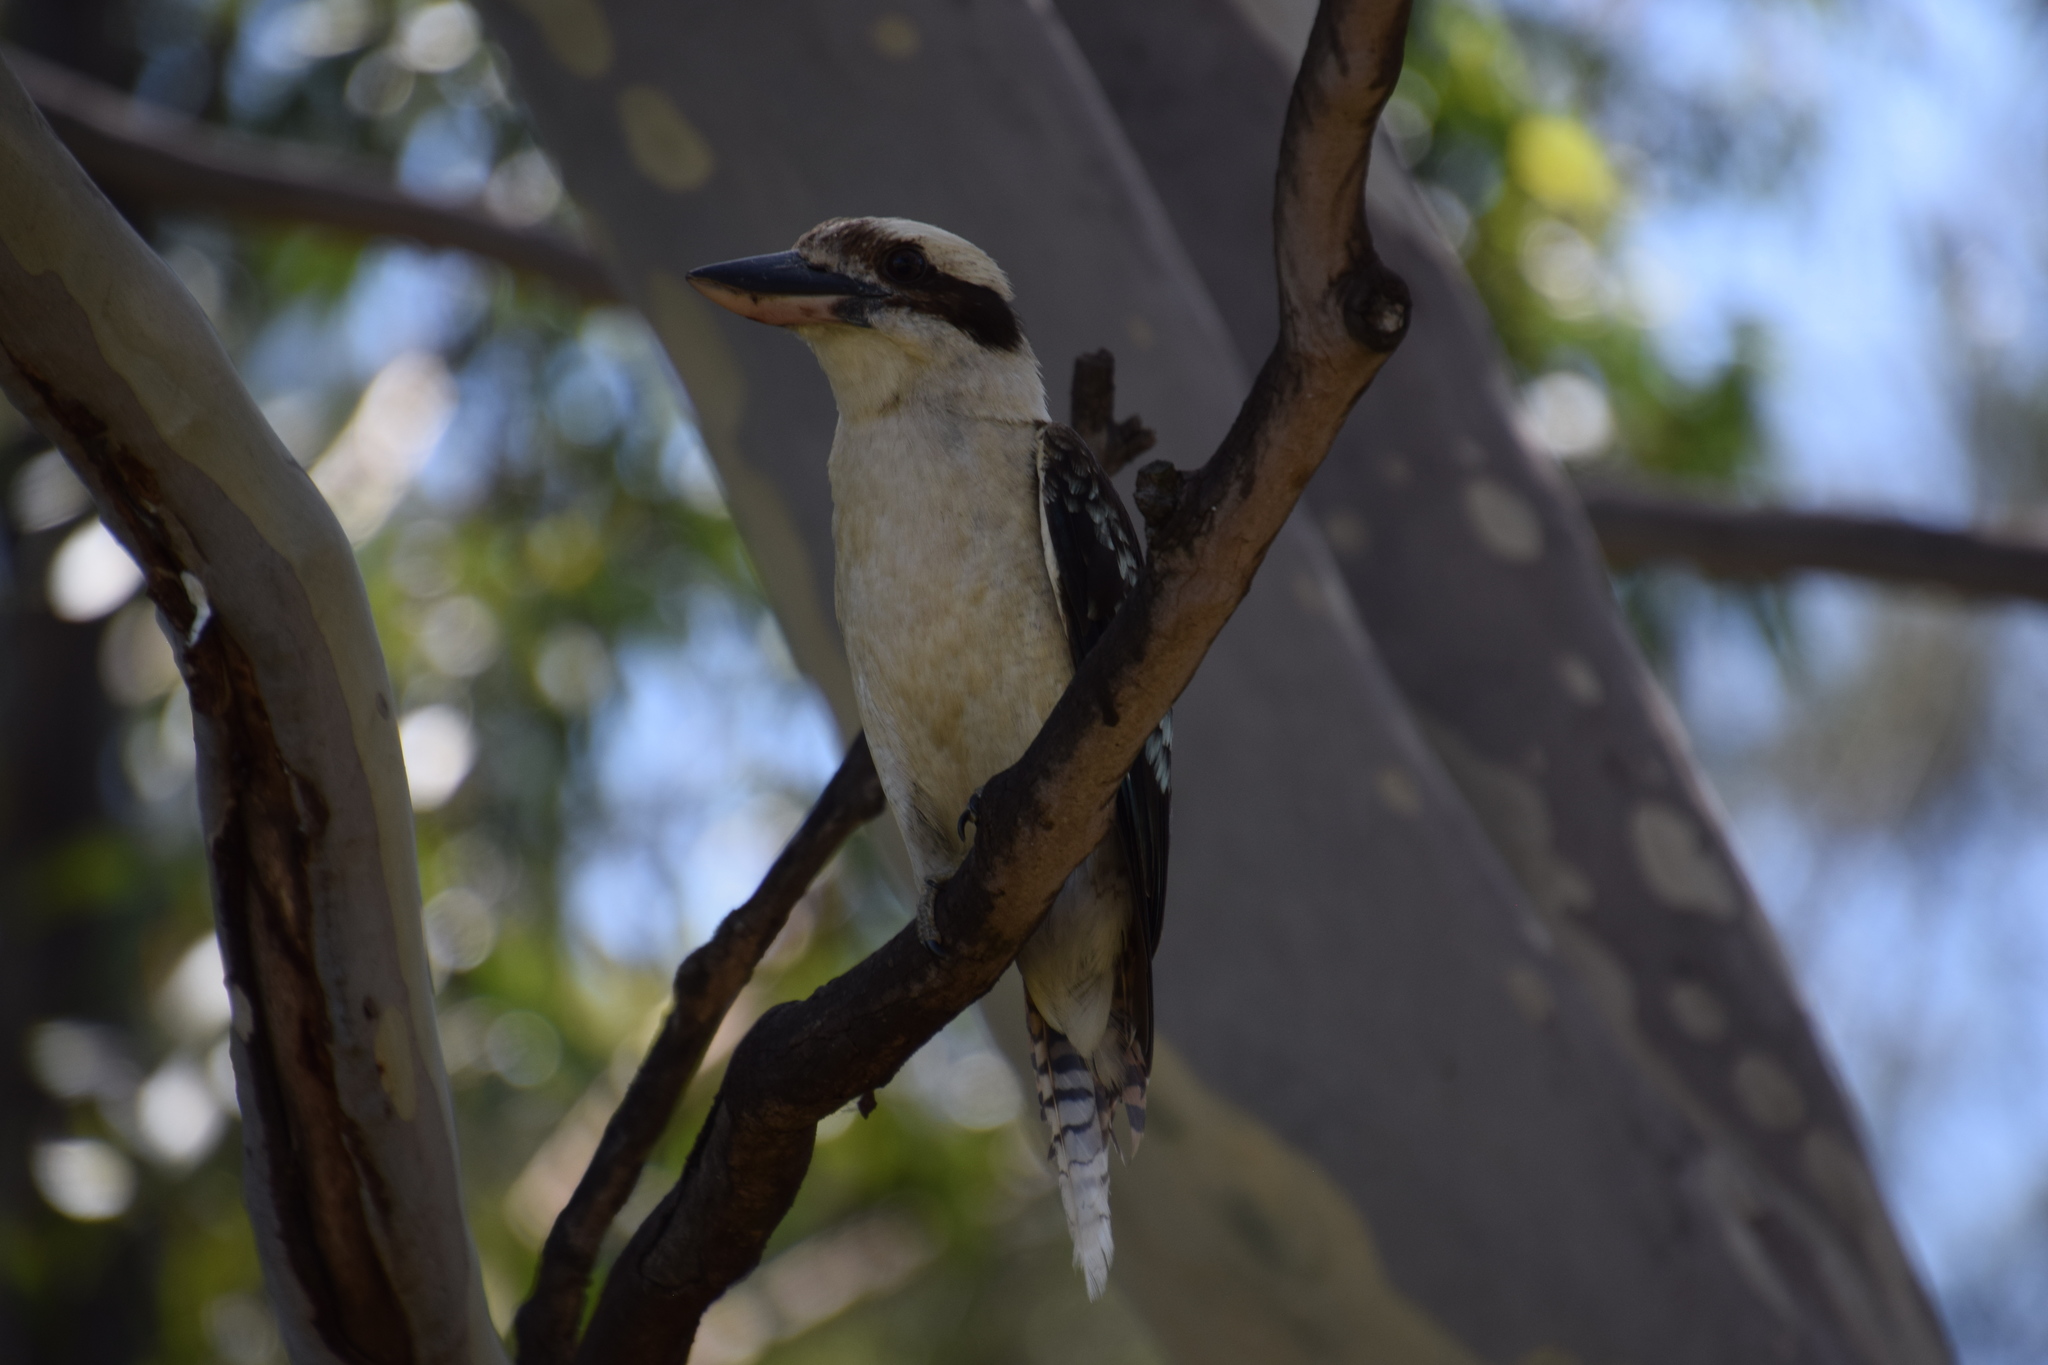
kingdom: Animalia
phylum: Chordata
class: Aves
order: Coraciiformes
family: Alcedinidae
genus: Dacelo
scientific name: Dacelo novaeguineae
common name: Laughing kookaburra
